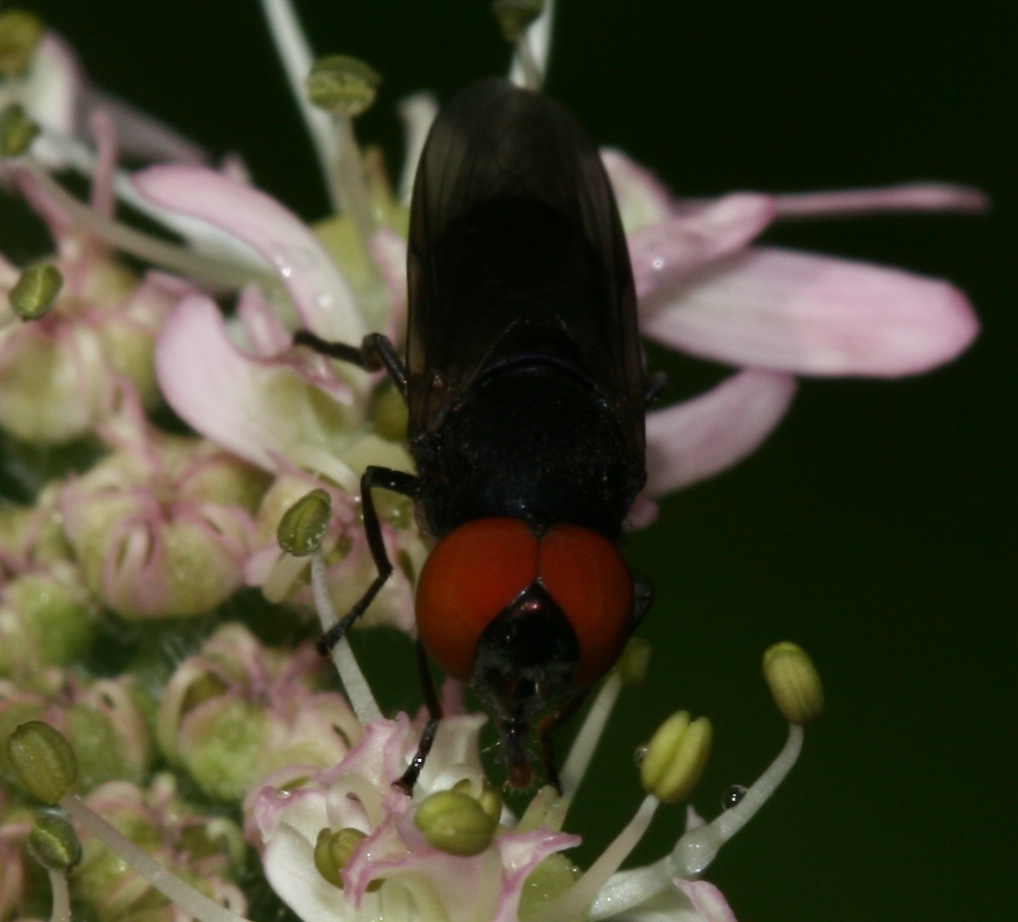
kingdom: Animalia
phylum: Arthropoda
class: Insecta
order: Diptera
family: Syrphidae
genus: Chrysogaster
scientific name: Chrysogaster solstitialis
